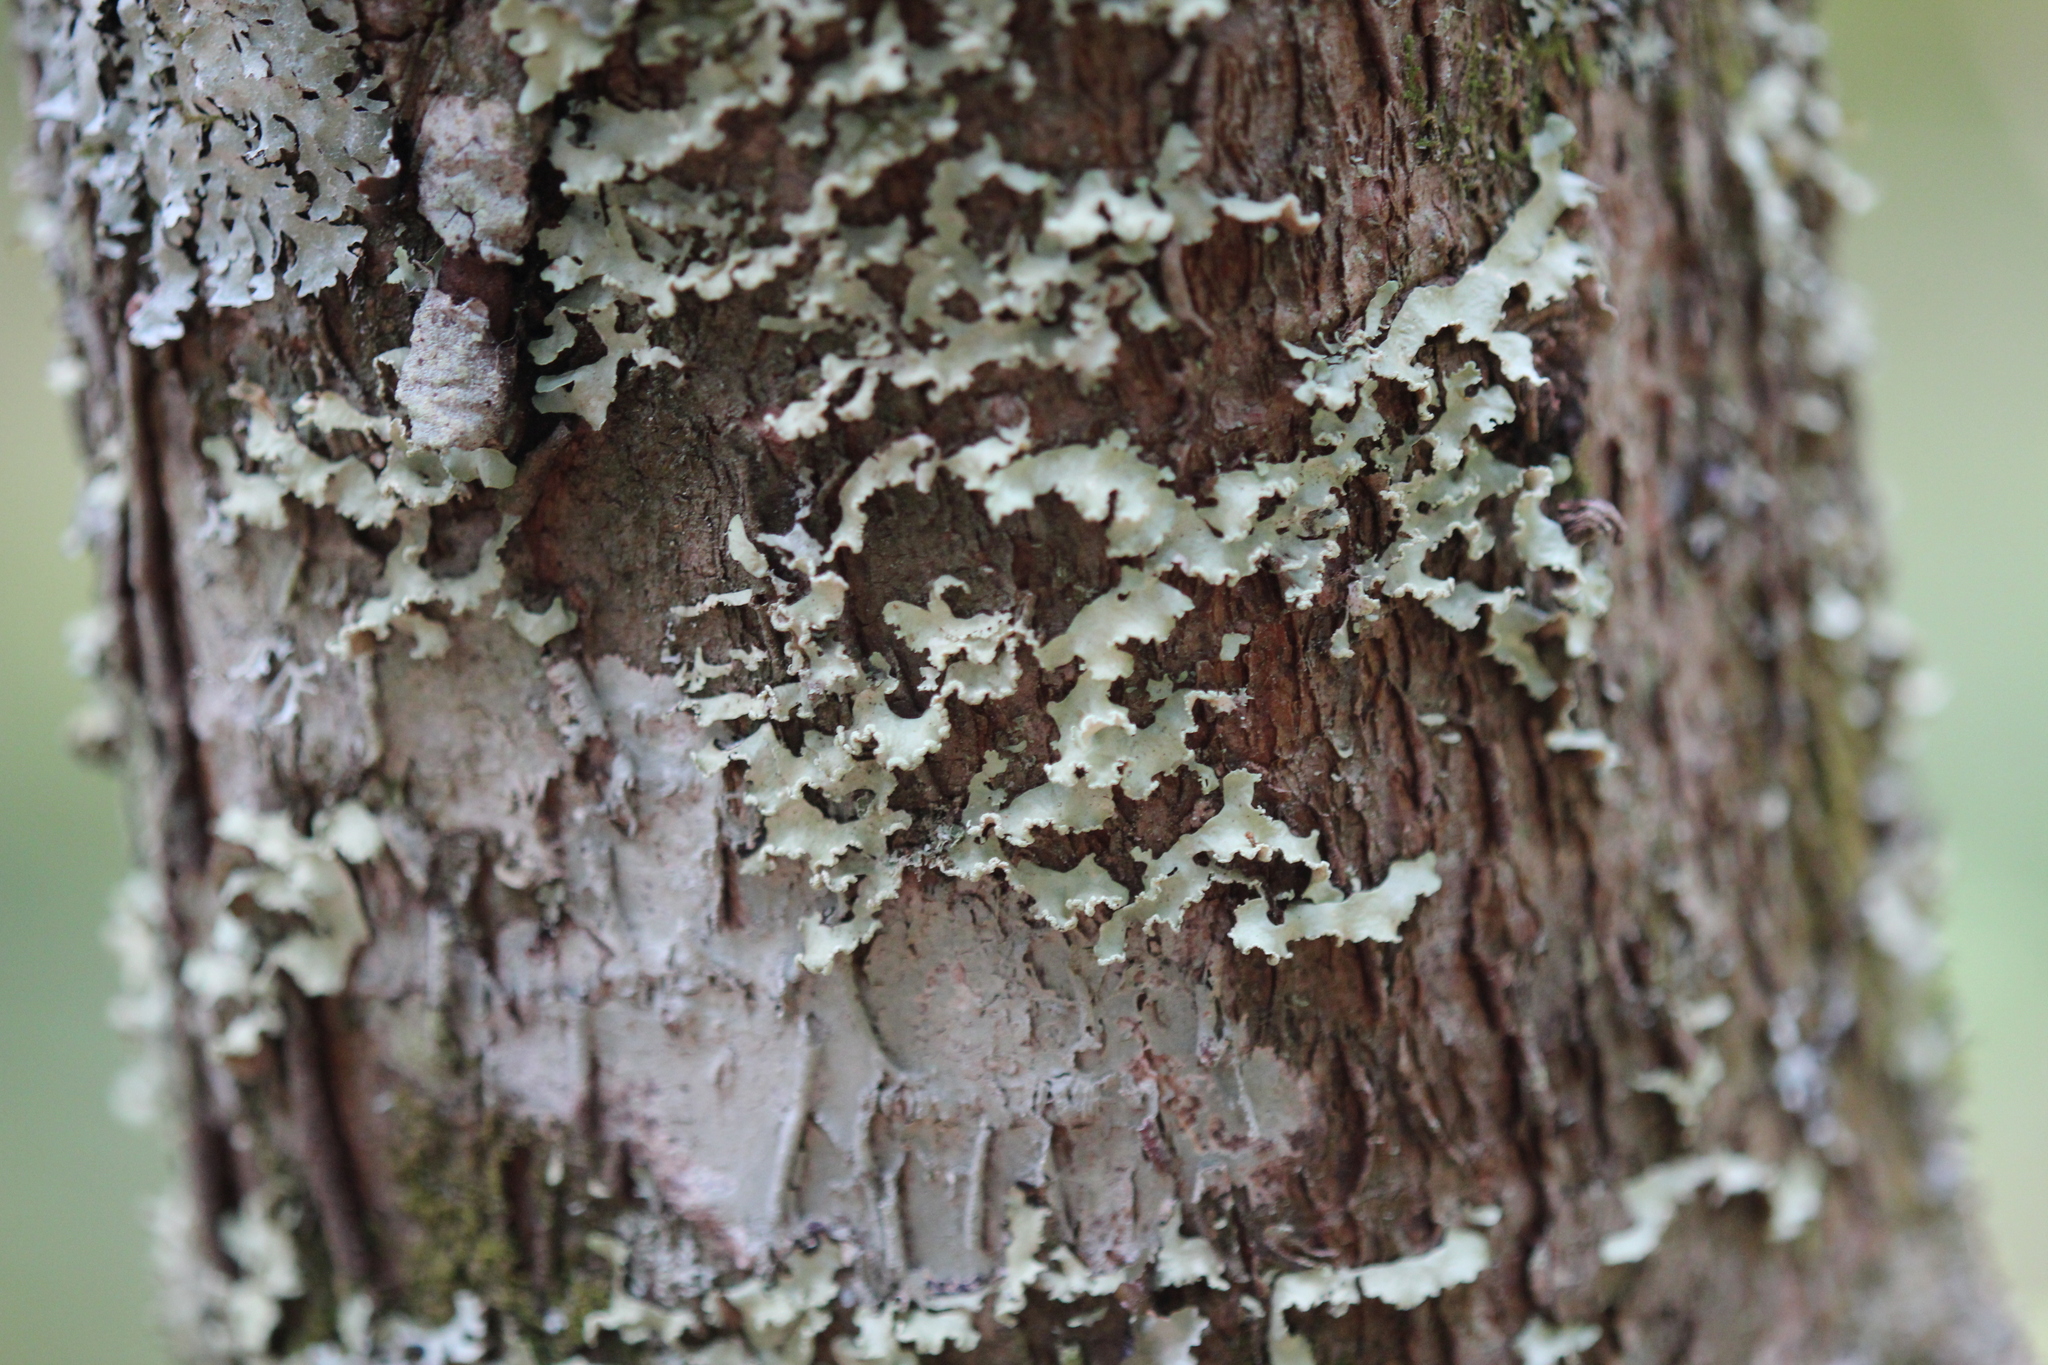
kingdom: Fungi
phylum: Ascomycota
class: Lecanoromycetes
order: Lecanorales
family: Parmeliaceae
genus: Usnocetraria
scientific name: Usnocetraria oakesiana
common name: Yellow ribbon lichen
